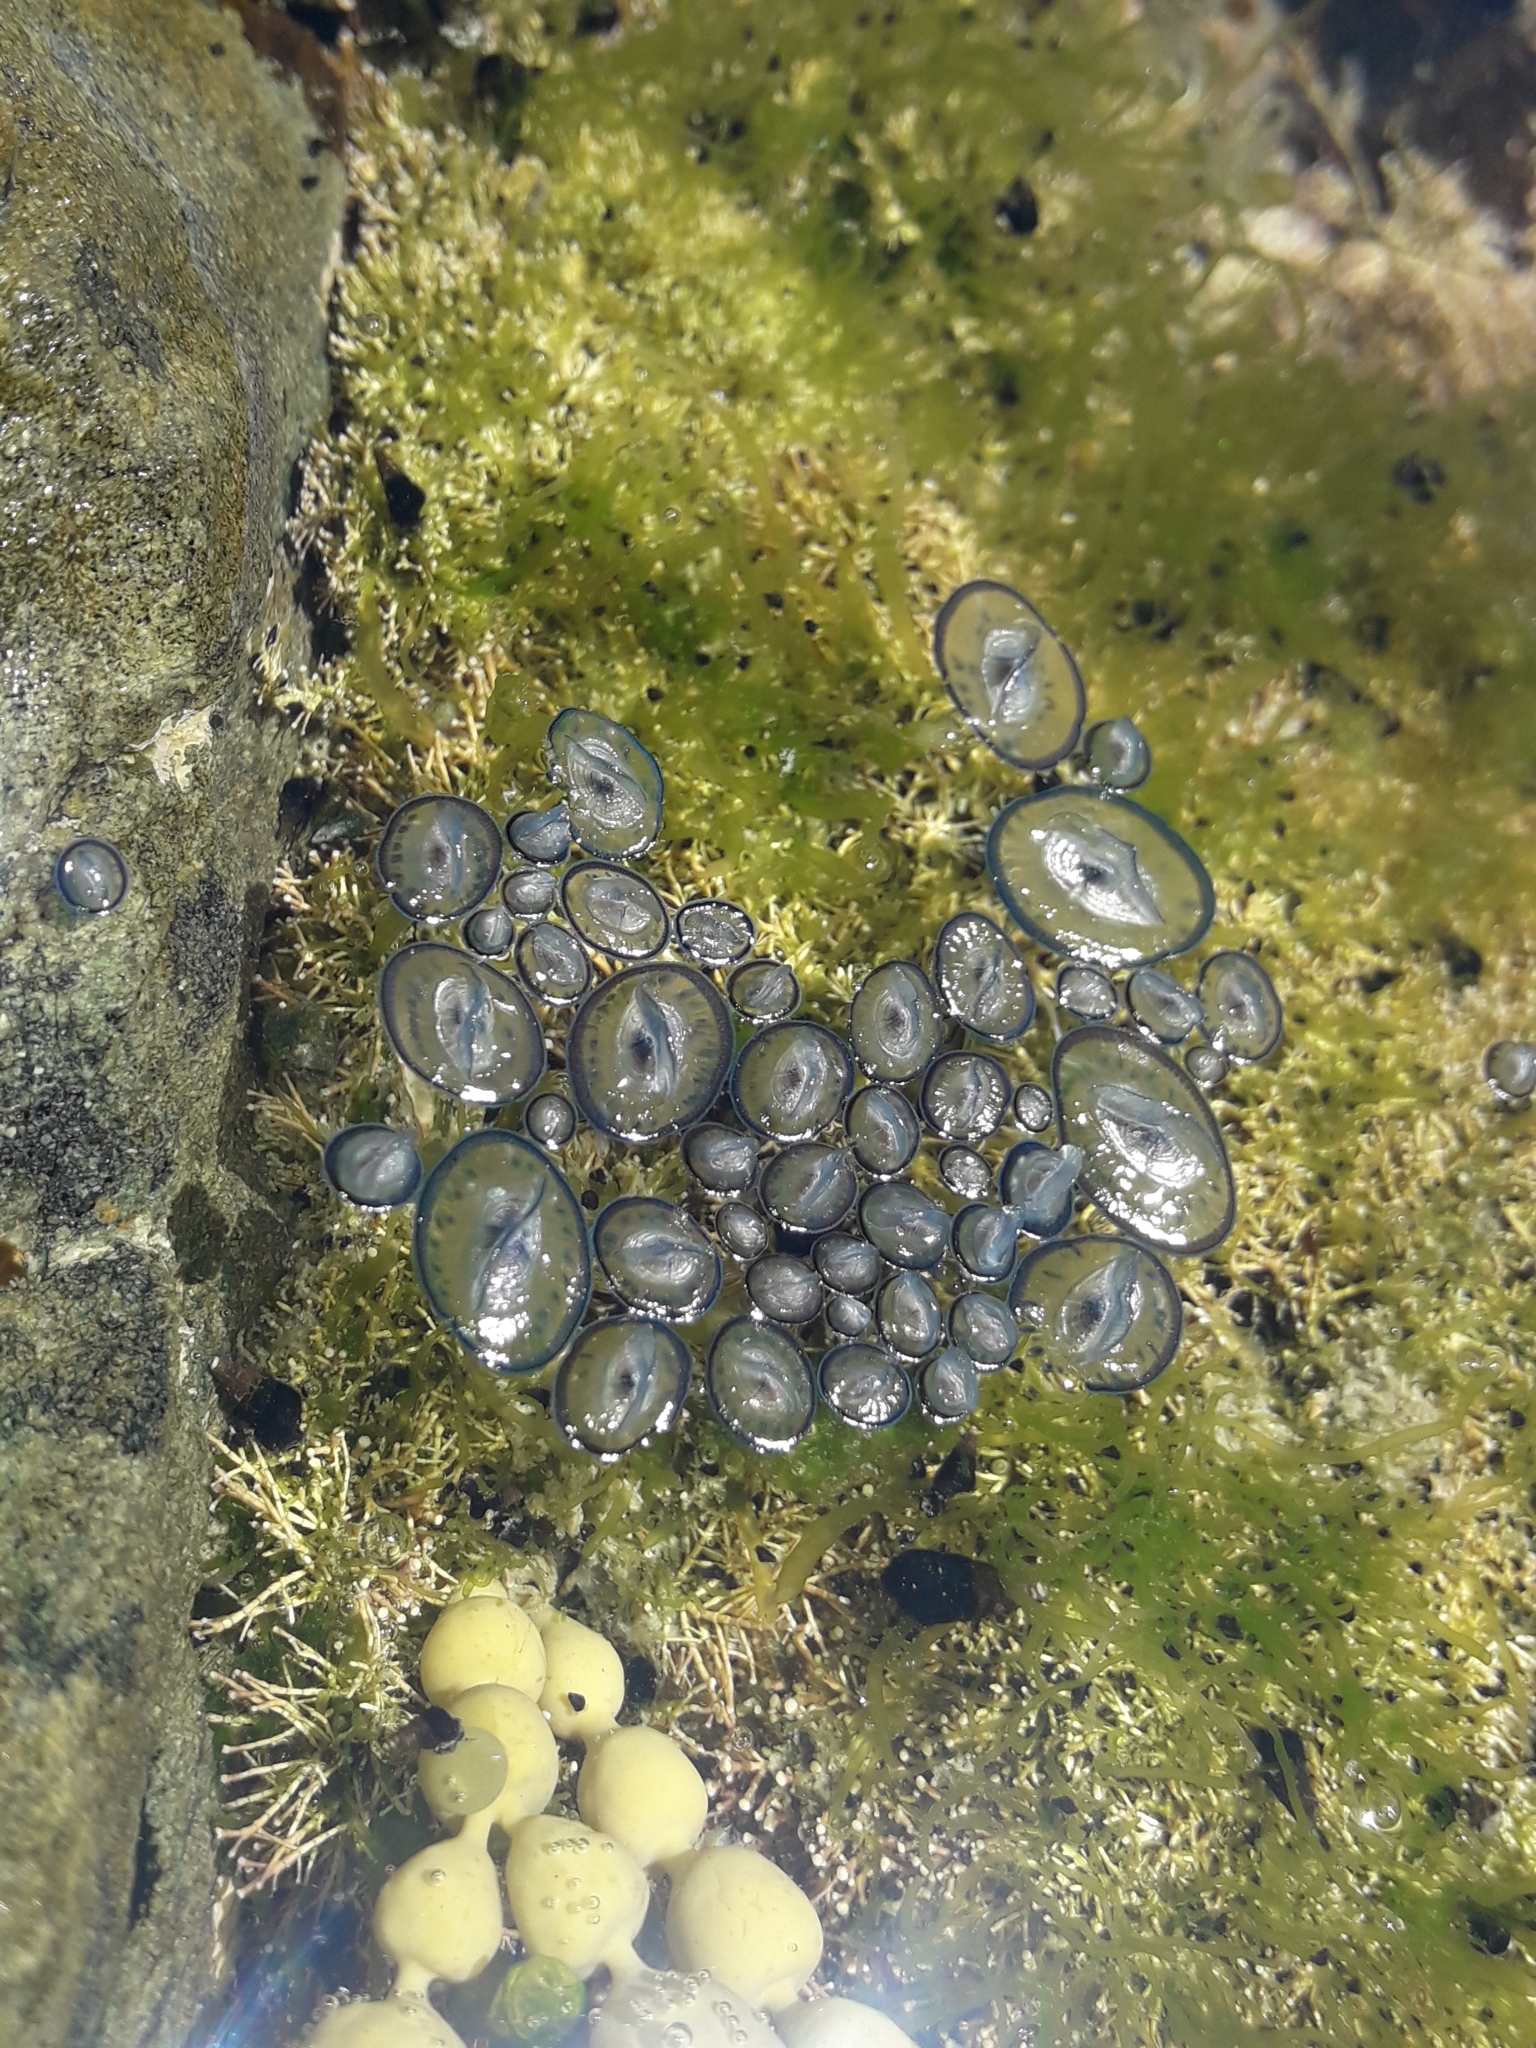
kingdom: Animalia
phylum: Cnidaria
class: Hydrozoa
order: Anthoathecata
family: Porpitidae
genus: Velella
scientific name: Velella velella
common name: By-the-wind-sailor
